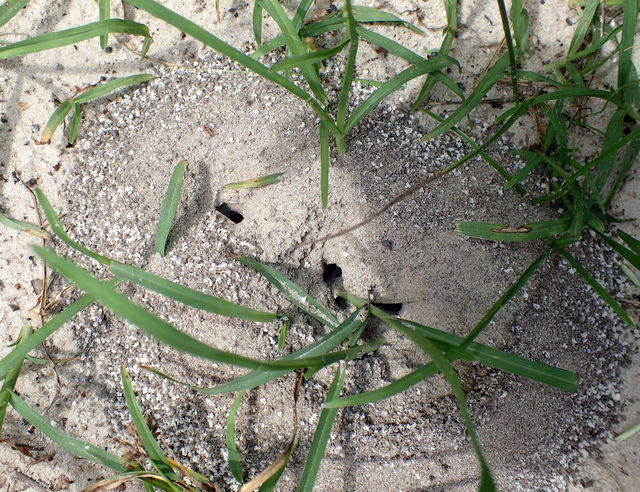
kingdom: Animalia
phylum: Arthropoda
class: Insecta
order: Hymenoptera
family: Formicidae
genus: Dorymyrmex
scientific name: Dorymyrmex bureni
